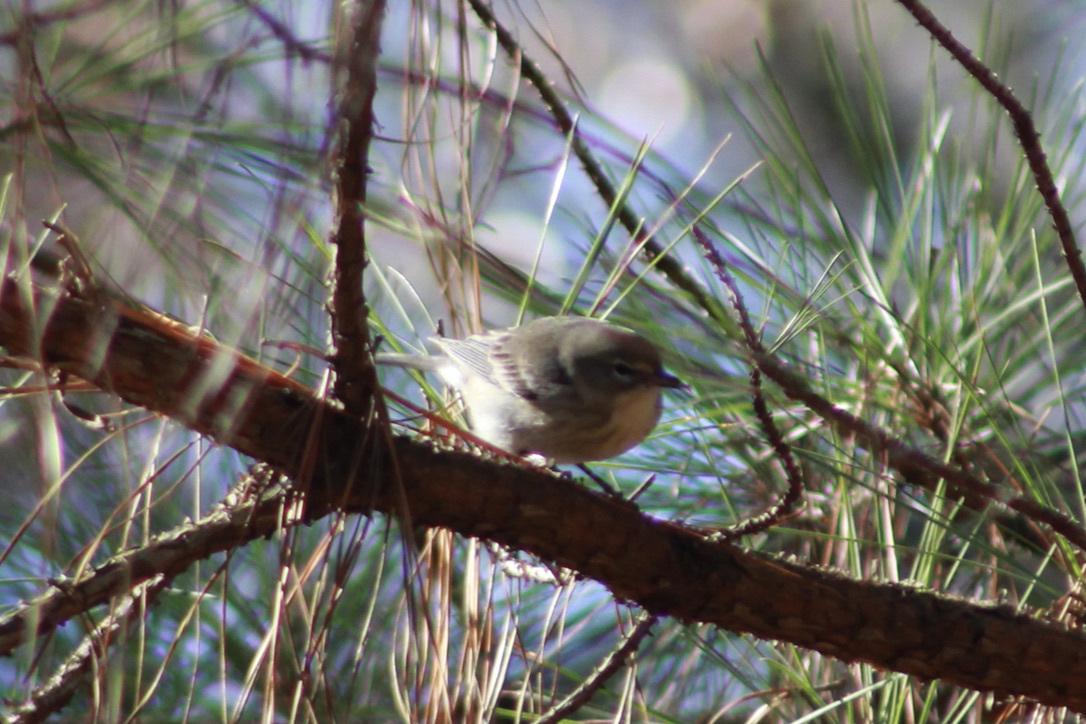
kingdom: Animalia
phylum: Chordata
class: Aves
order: Passeriformes
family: Parulidae
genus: Setophaga
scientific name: Setophaga pinus
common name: Pine warbler
